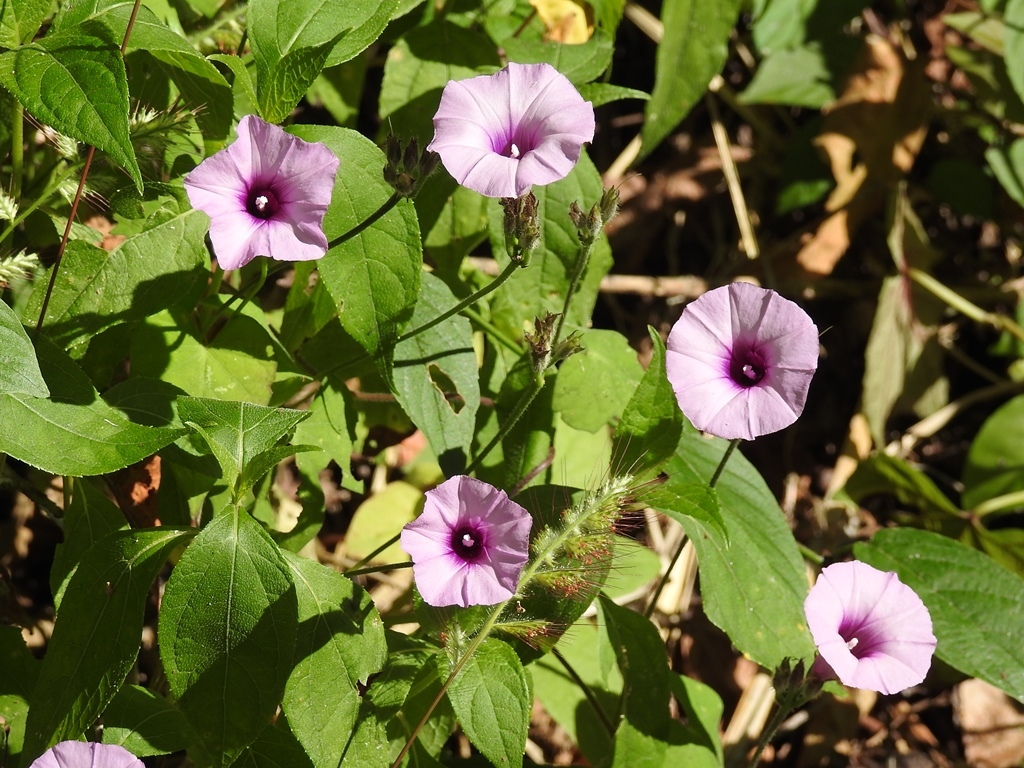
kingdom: Plantae
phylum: Tracheophyta
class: Magnoliopsida
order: Solanales
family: Convolvulaceae
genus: Ipomoea
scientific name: Ipomoea trifida
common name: Cotton morningglory
